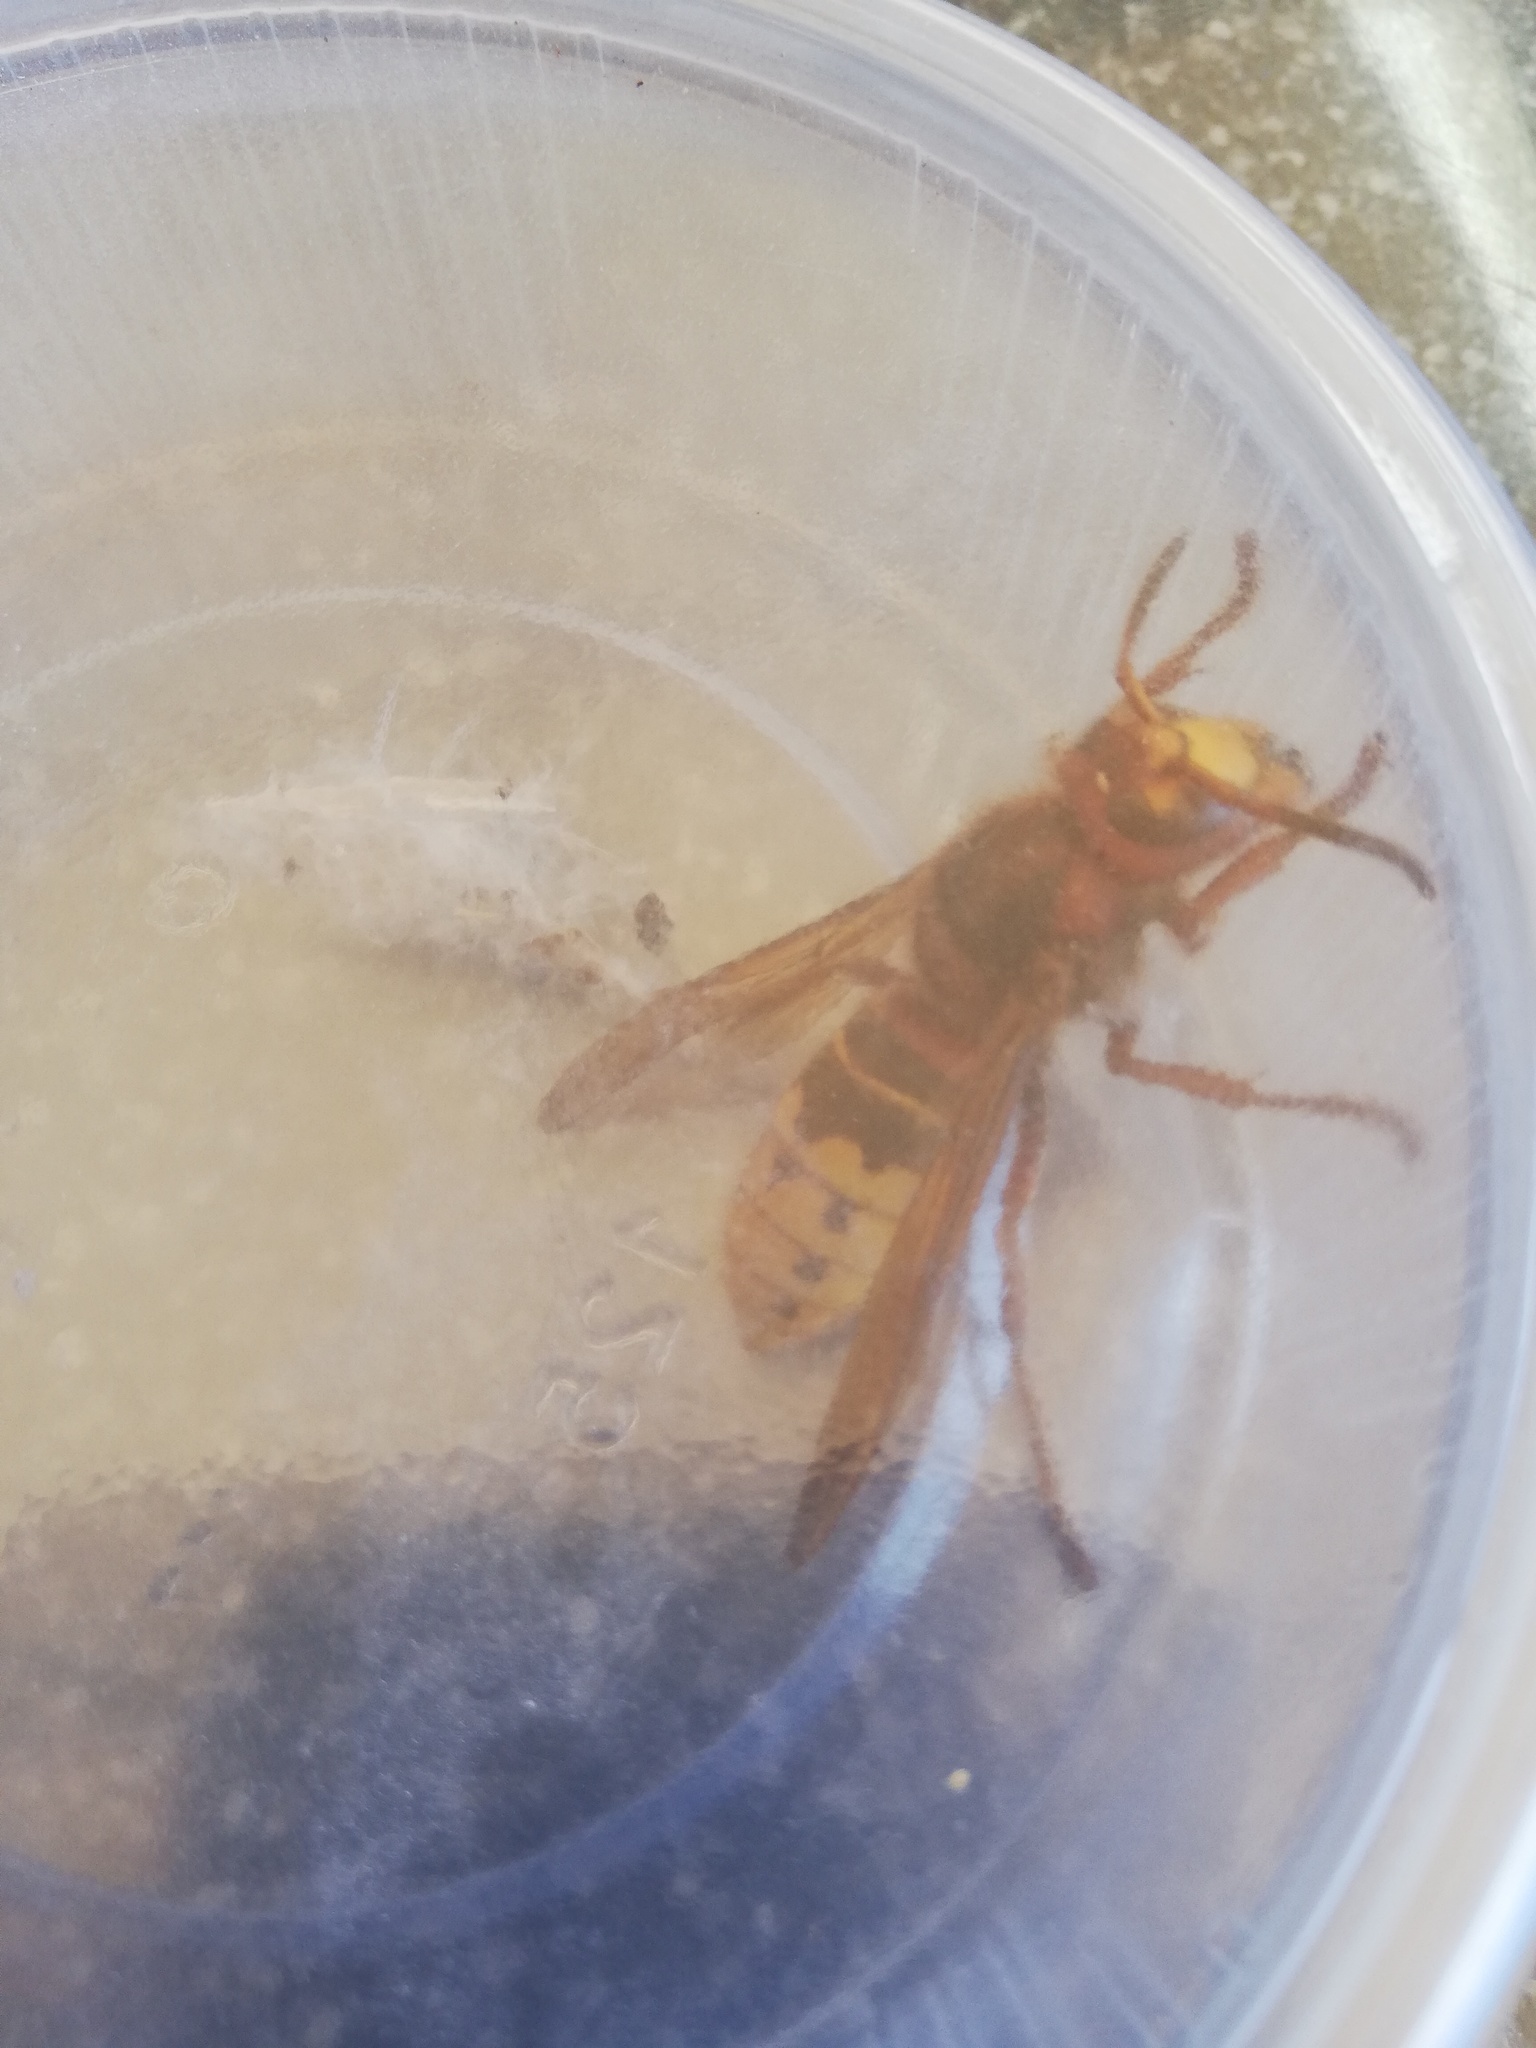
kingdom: Animalia
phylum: Arthropoda
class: Insecta
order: Hymenoptera
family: Vespidae
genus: Vespa
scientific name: Vespa crabro
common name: Hornet
